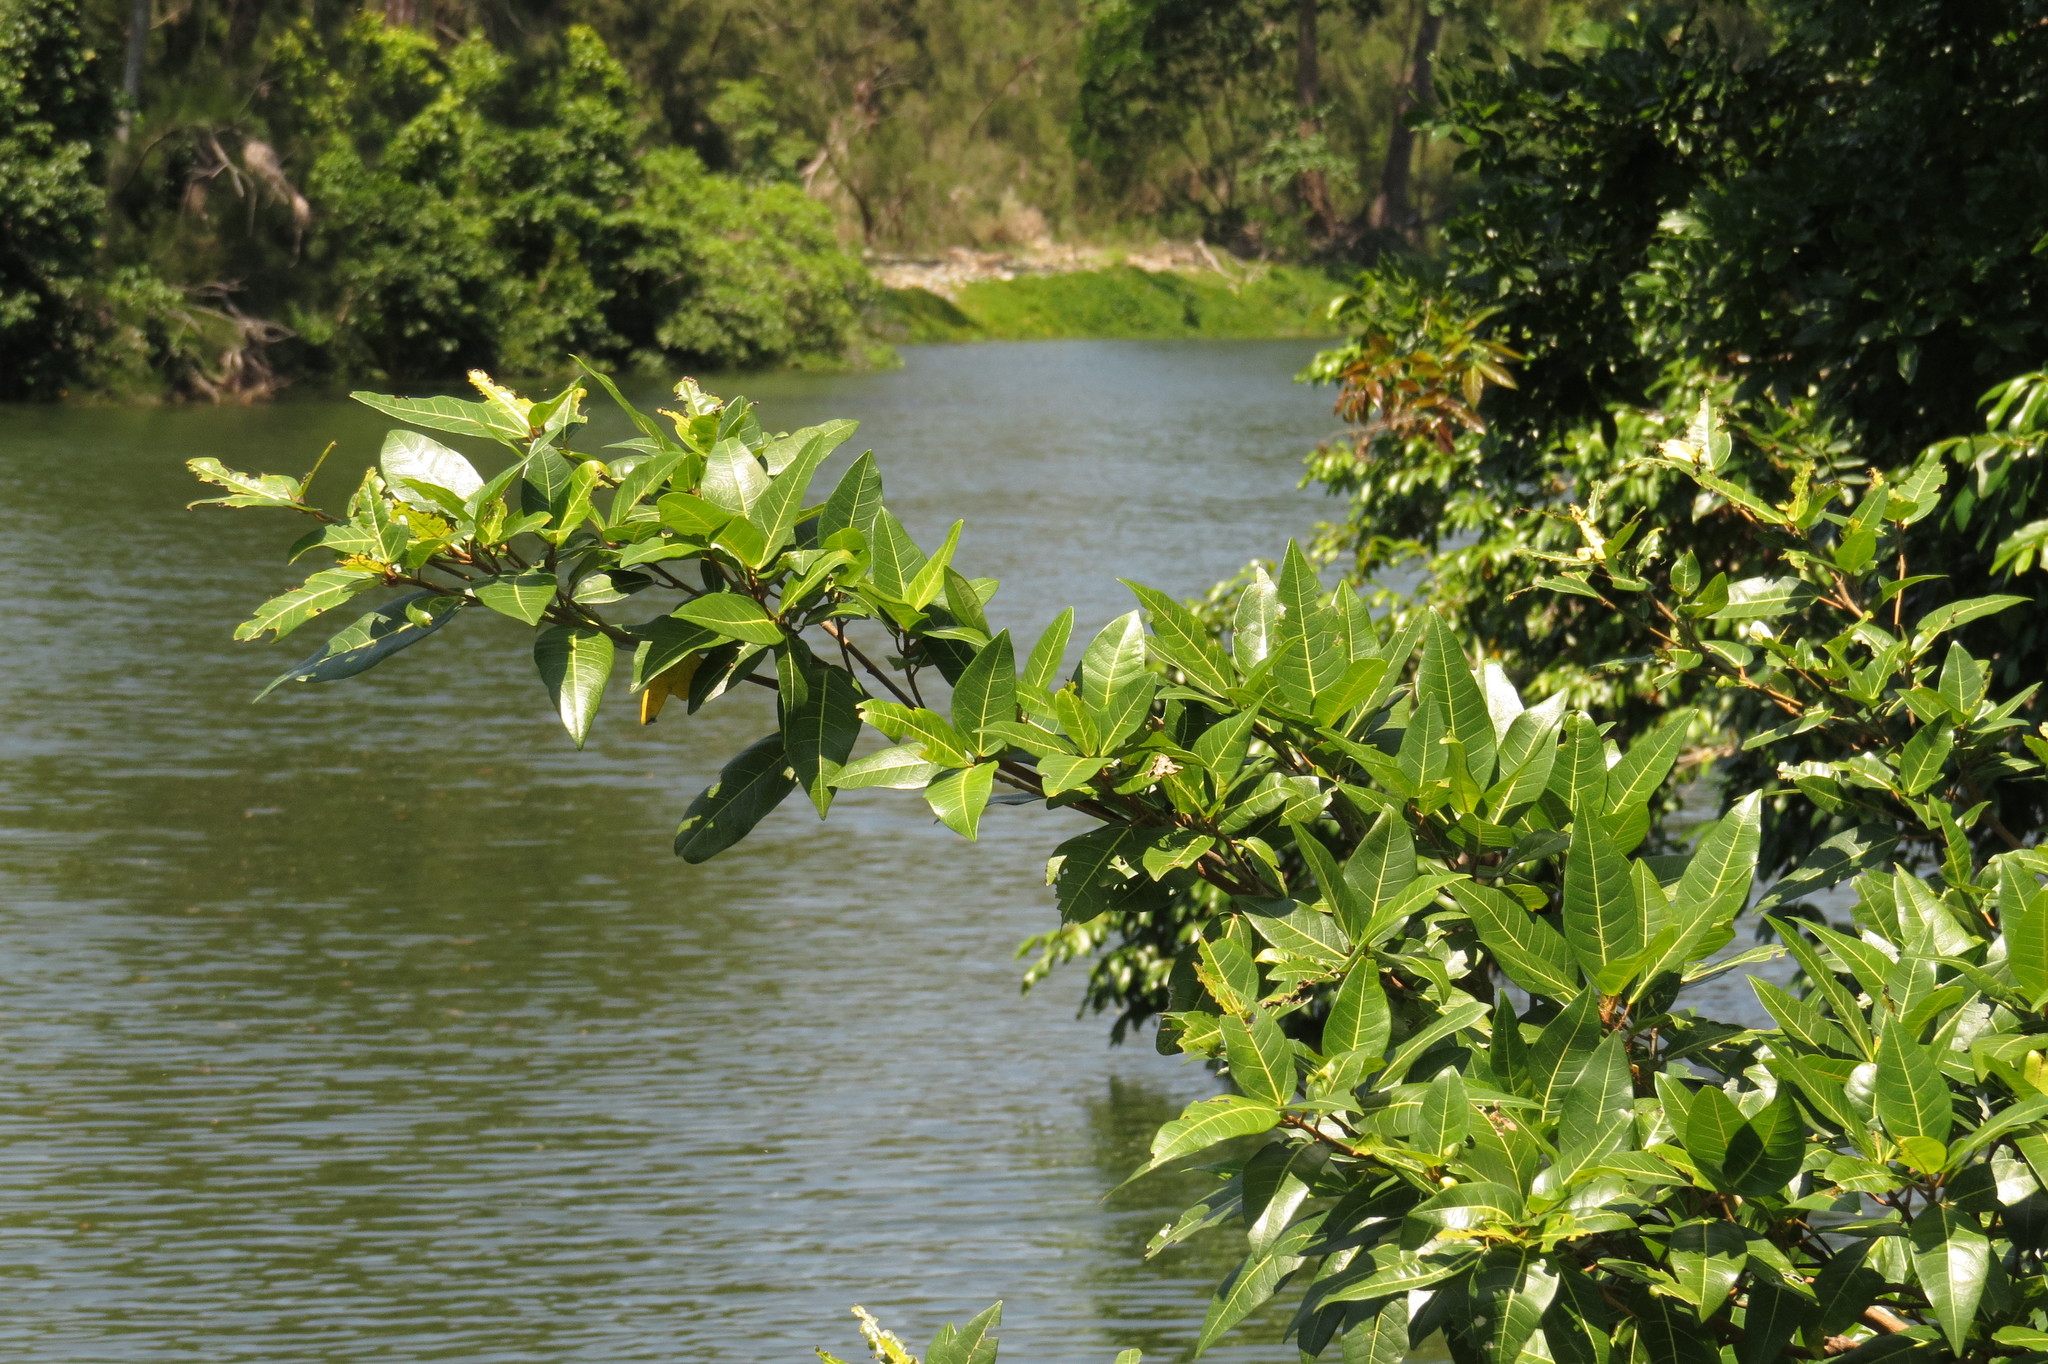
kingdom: Plantae
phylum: Tracheophyta
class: Magnoliopsida
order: Rosales
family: Moraceae
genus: Ficus
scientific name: Ficus adenosperma
